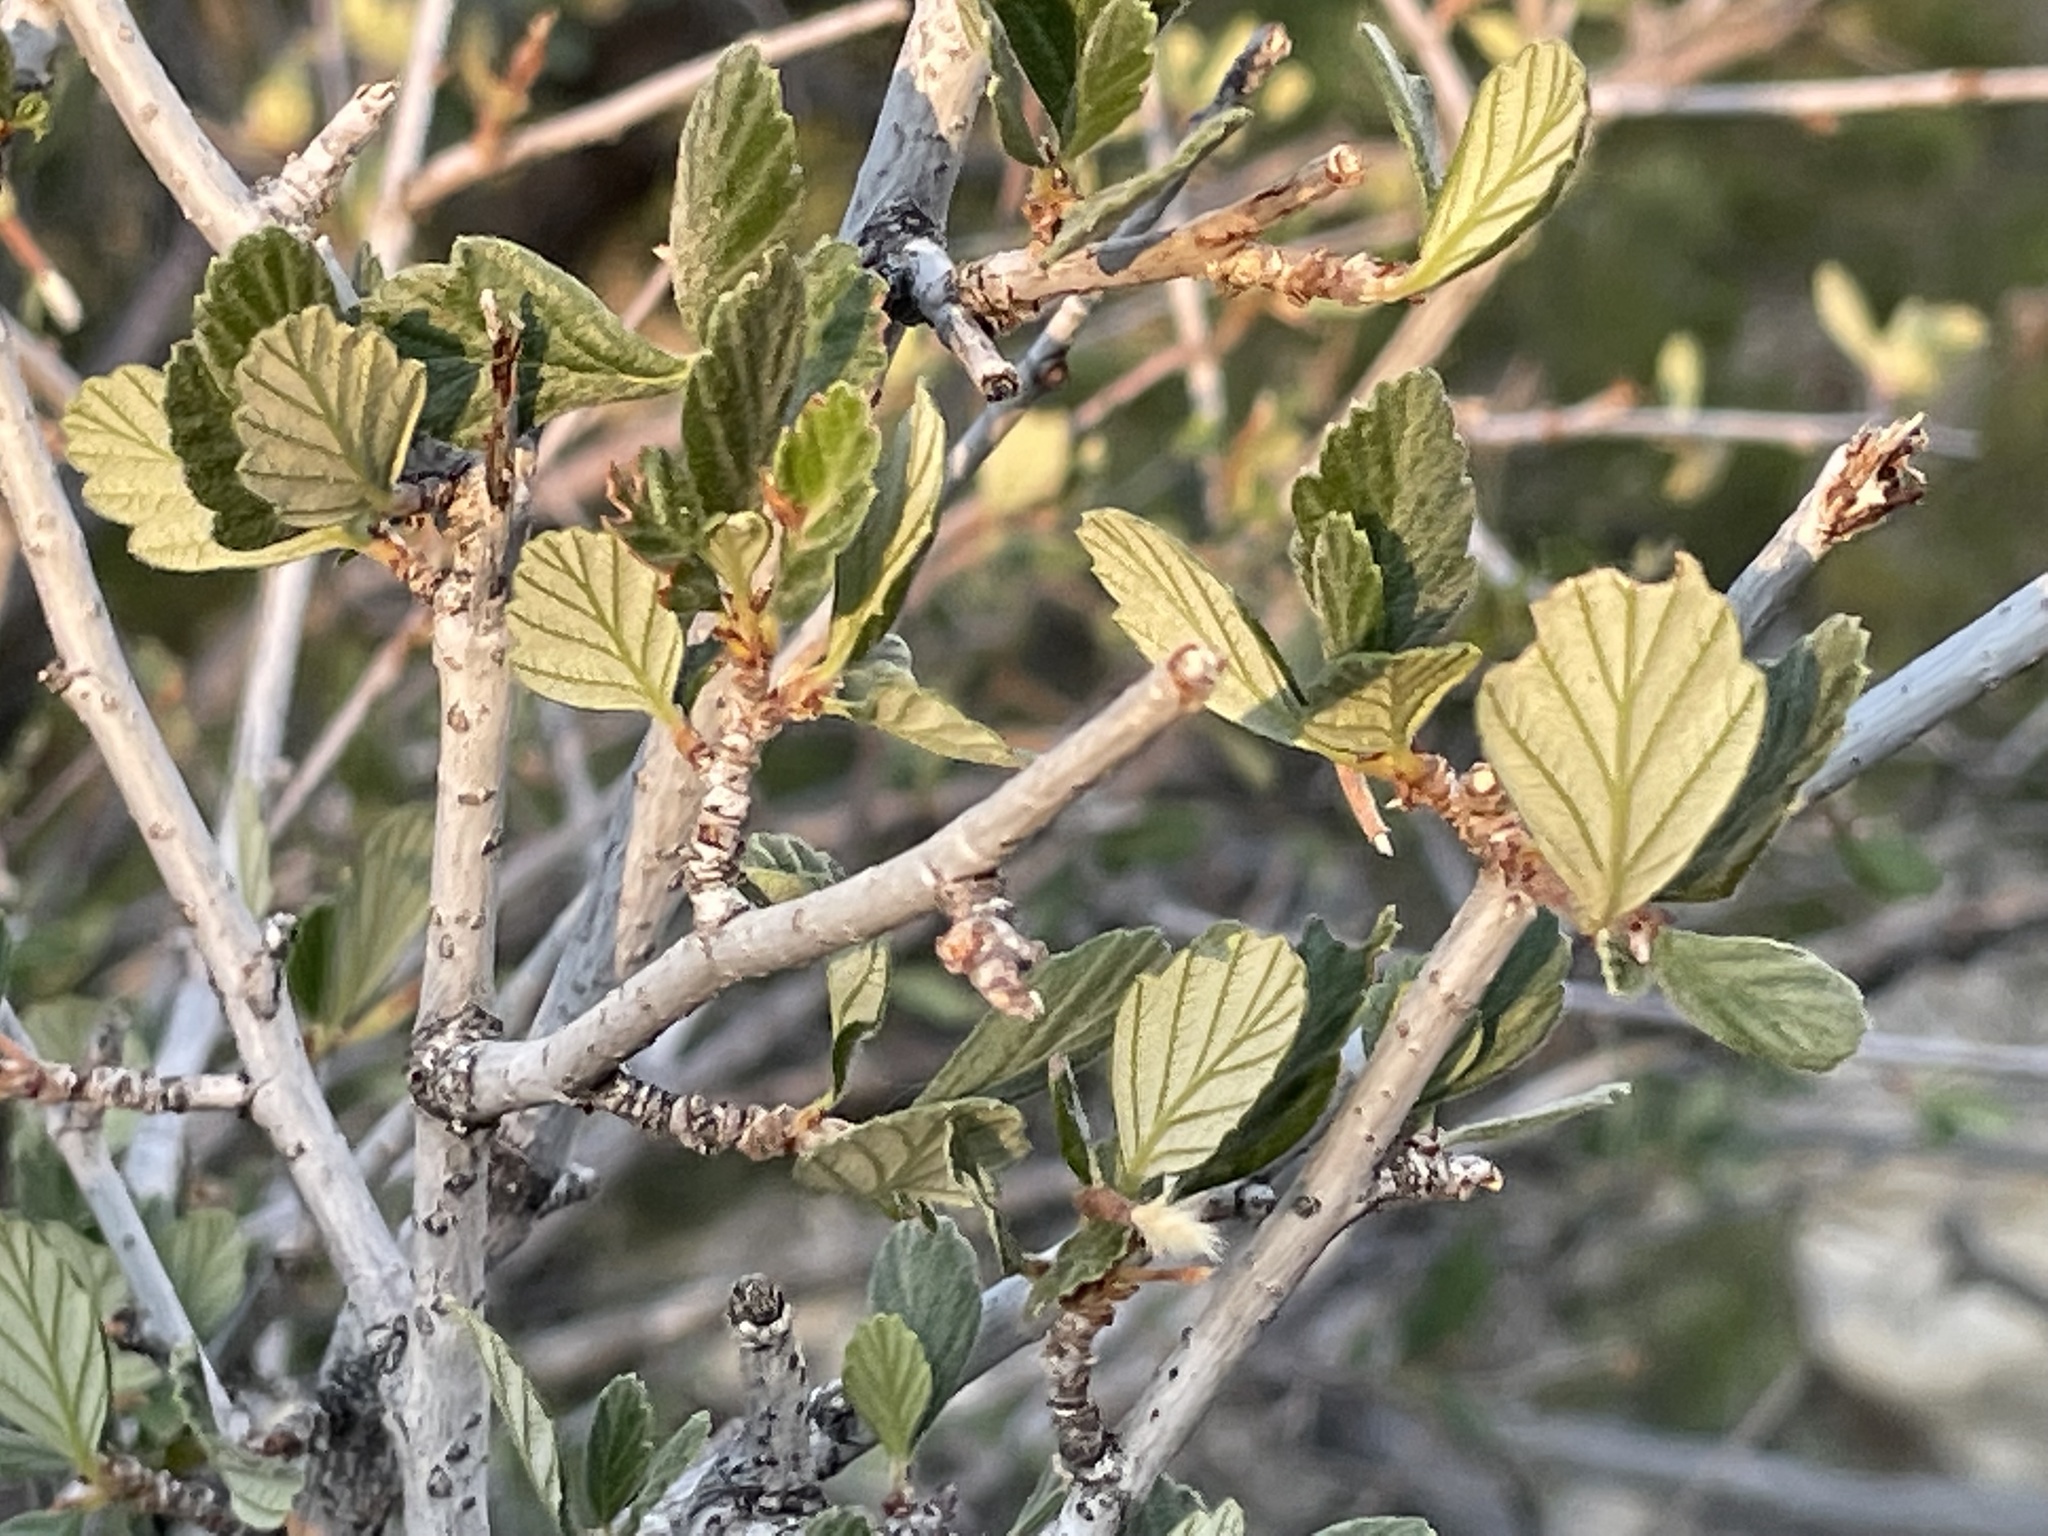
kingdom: Plantae
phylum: Tracheophyta
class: Magnoliopsida
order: Rosales
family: Rosaceae
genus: Cercocarpus
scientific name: Cercocarpus montanus
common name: Alder-leaf cercocarpus
